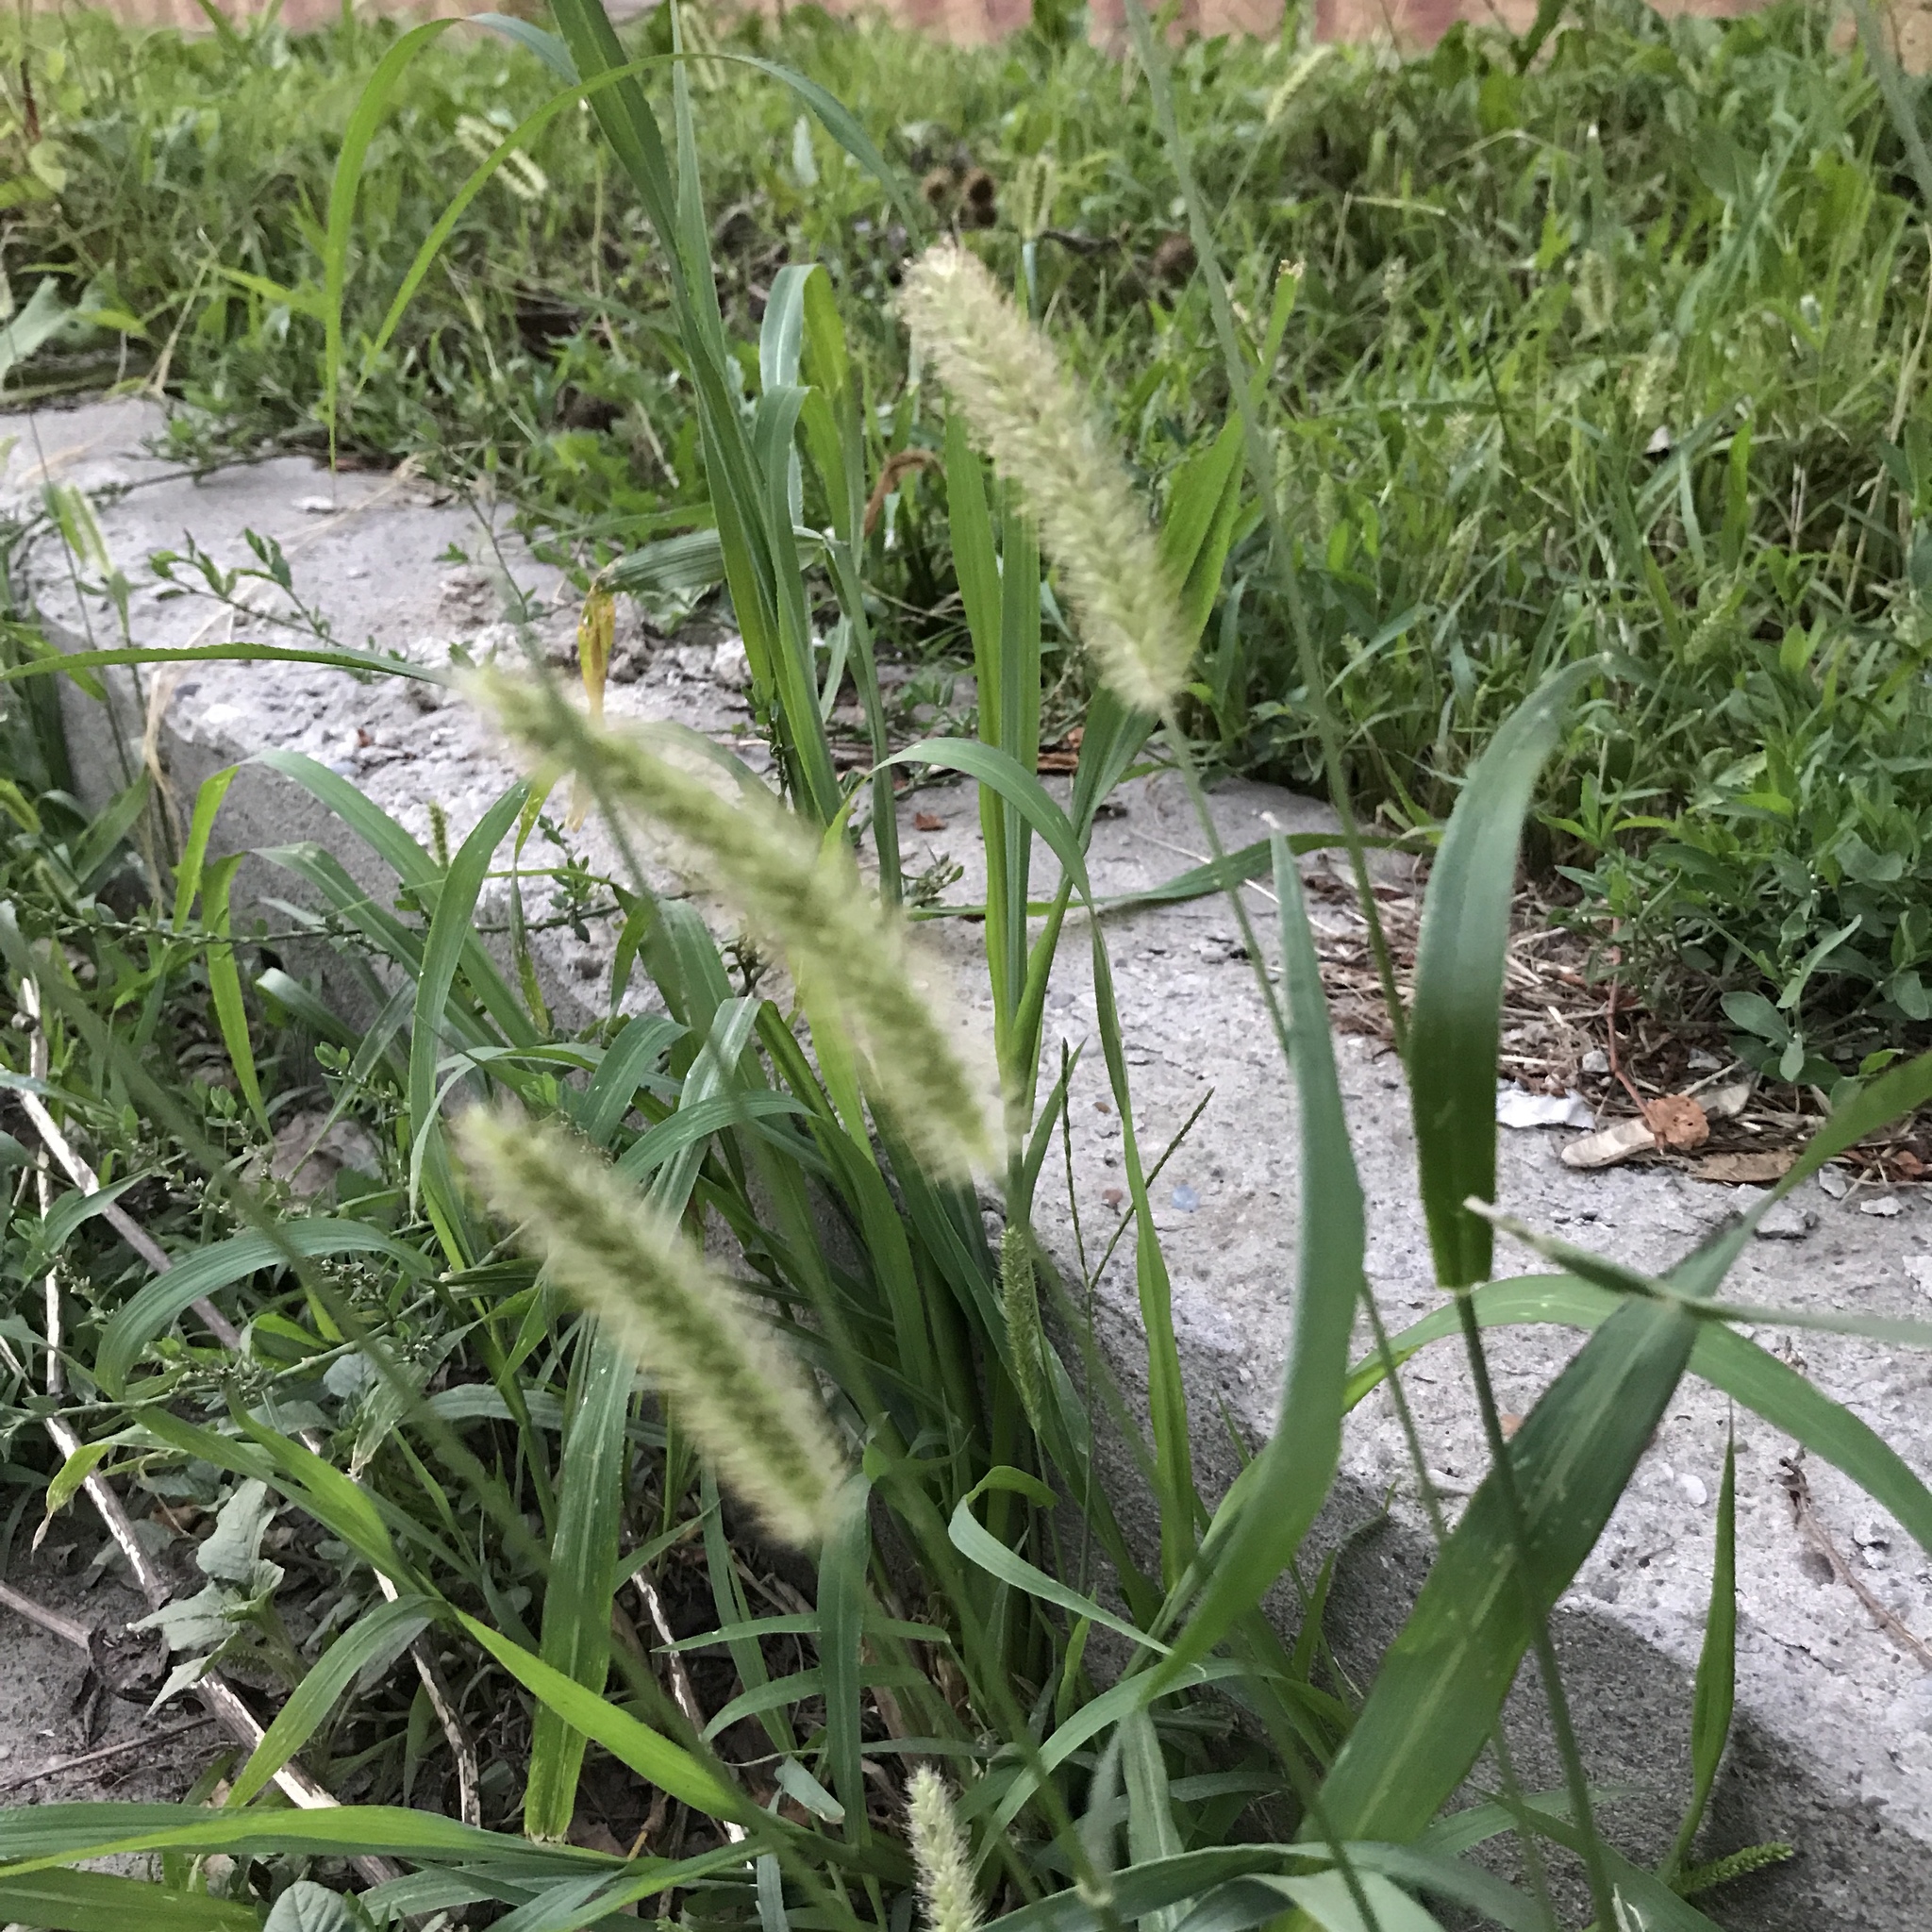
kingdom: Plantae
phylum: Tracheophyta
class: Liliopsida
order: Poales
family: Poaceae
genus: Setaria
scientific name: Setaria viridis
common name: Green bristlegrass
